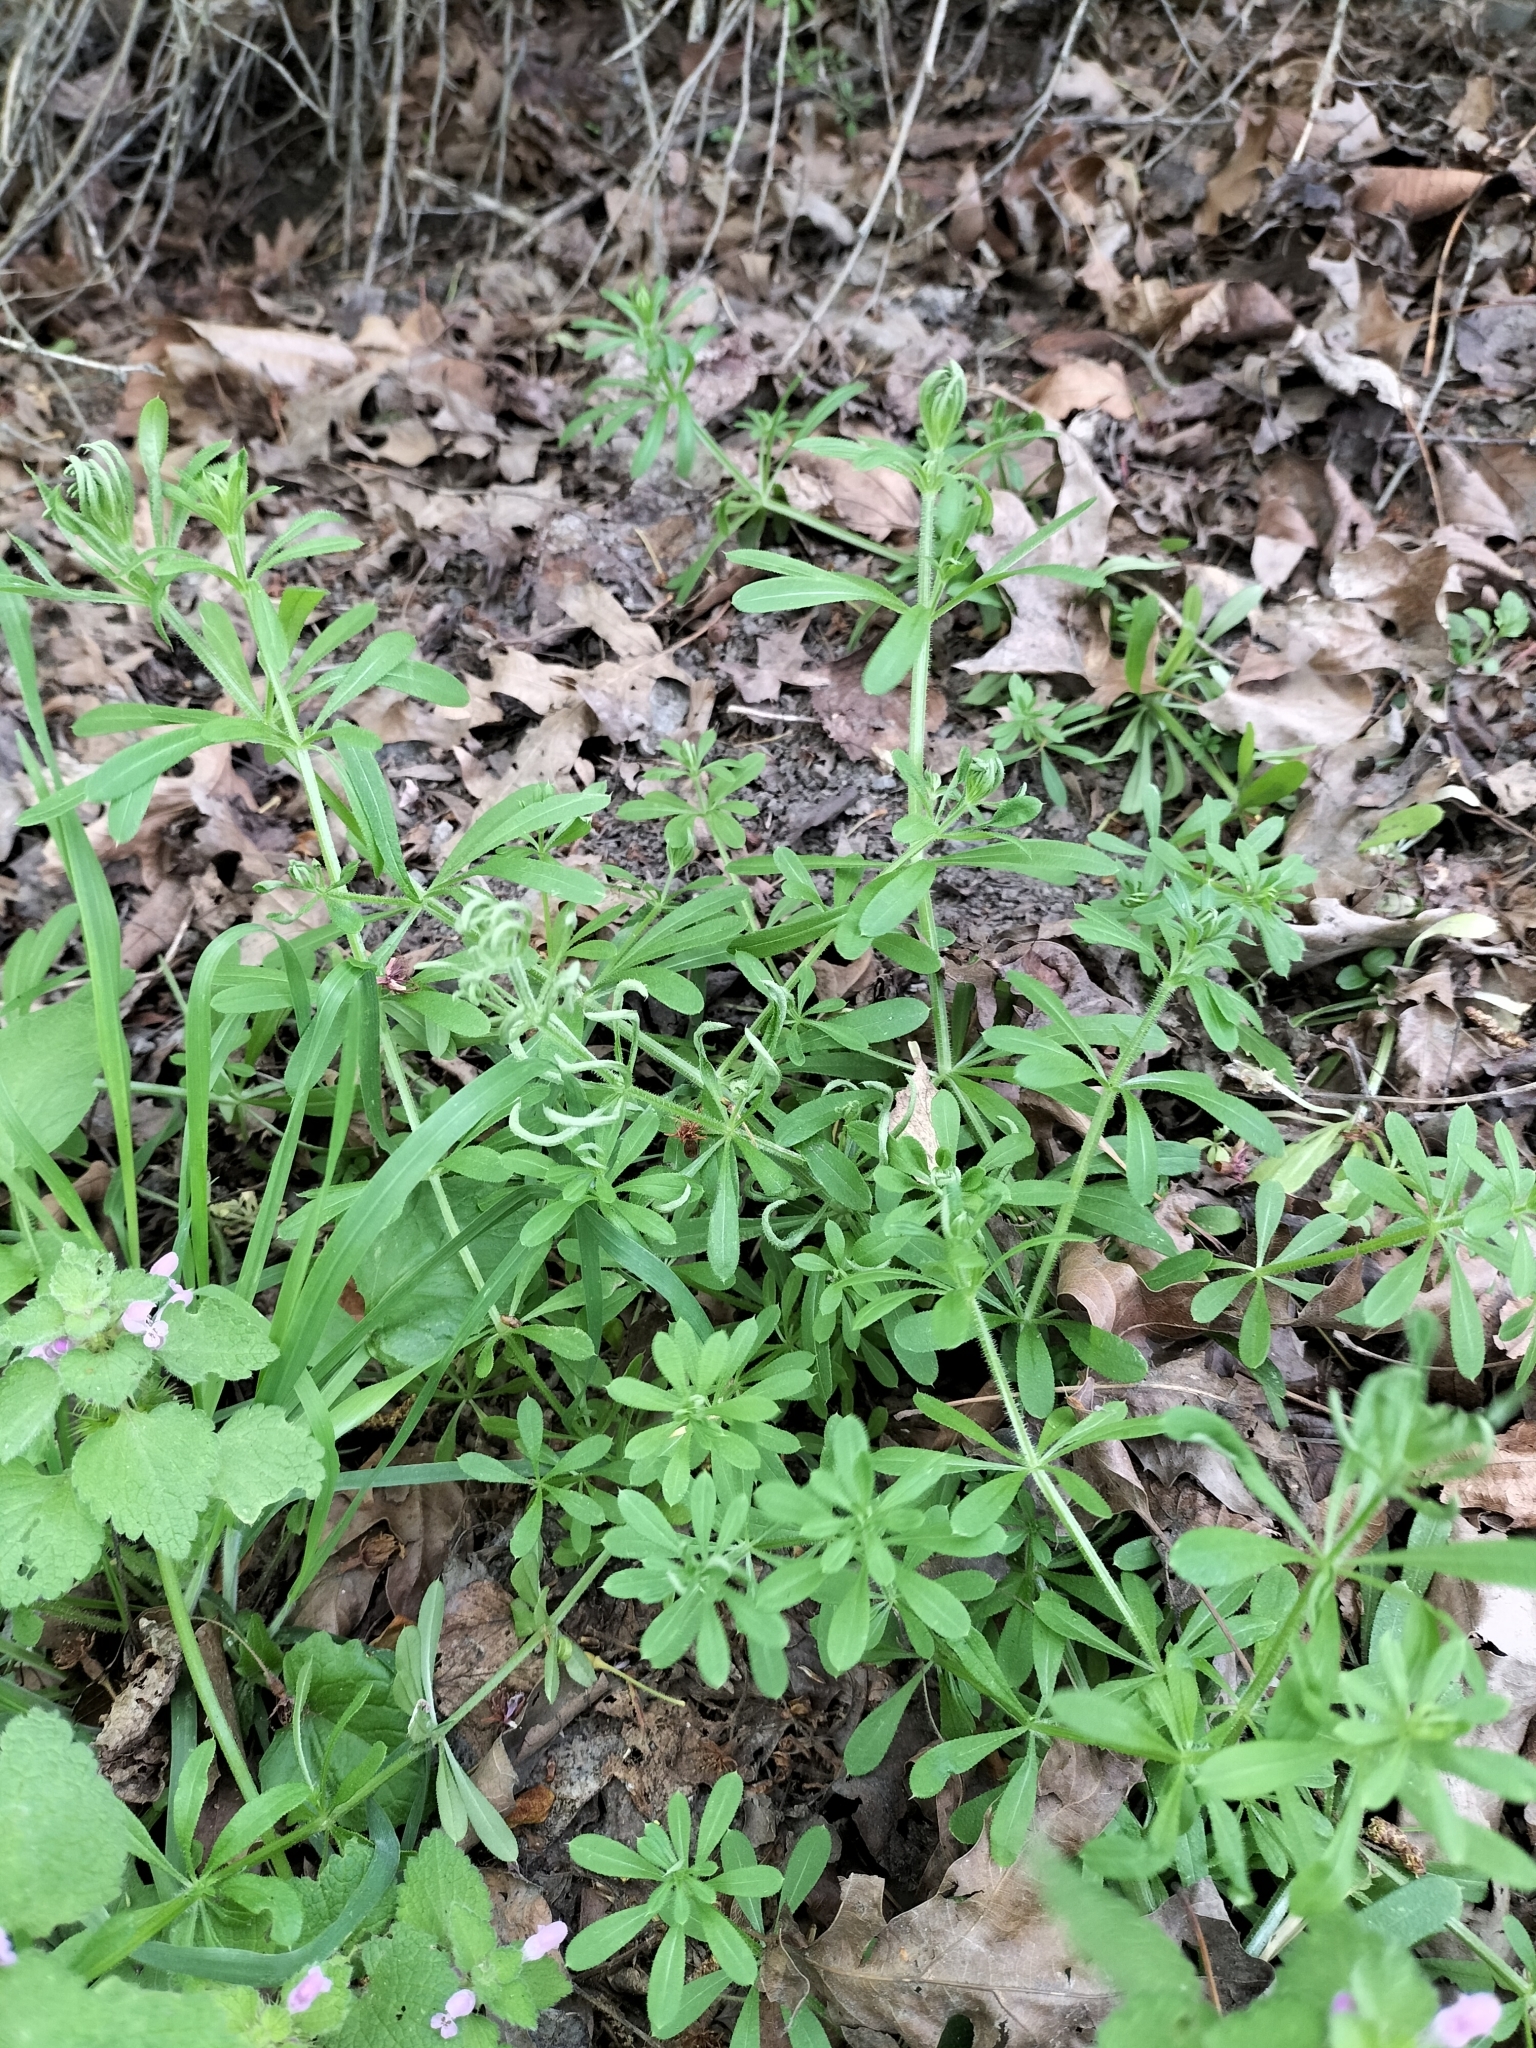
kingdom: Plantae
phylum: Tracheophyta
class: Magnoliopsida
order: Gentianales
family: Rubiaceae
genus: Galium
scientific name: Galium aparine
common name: Cleavers
